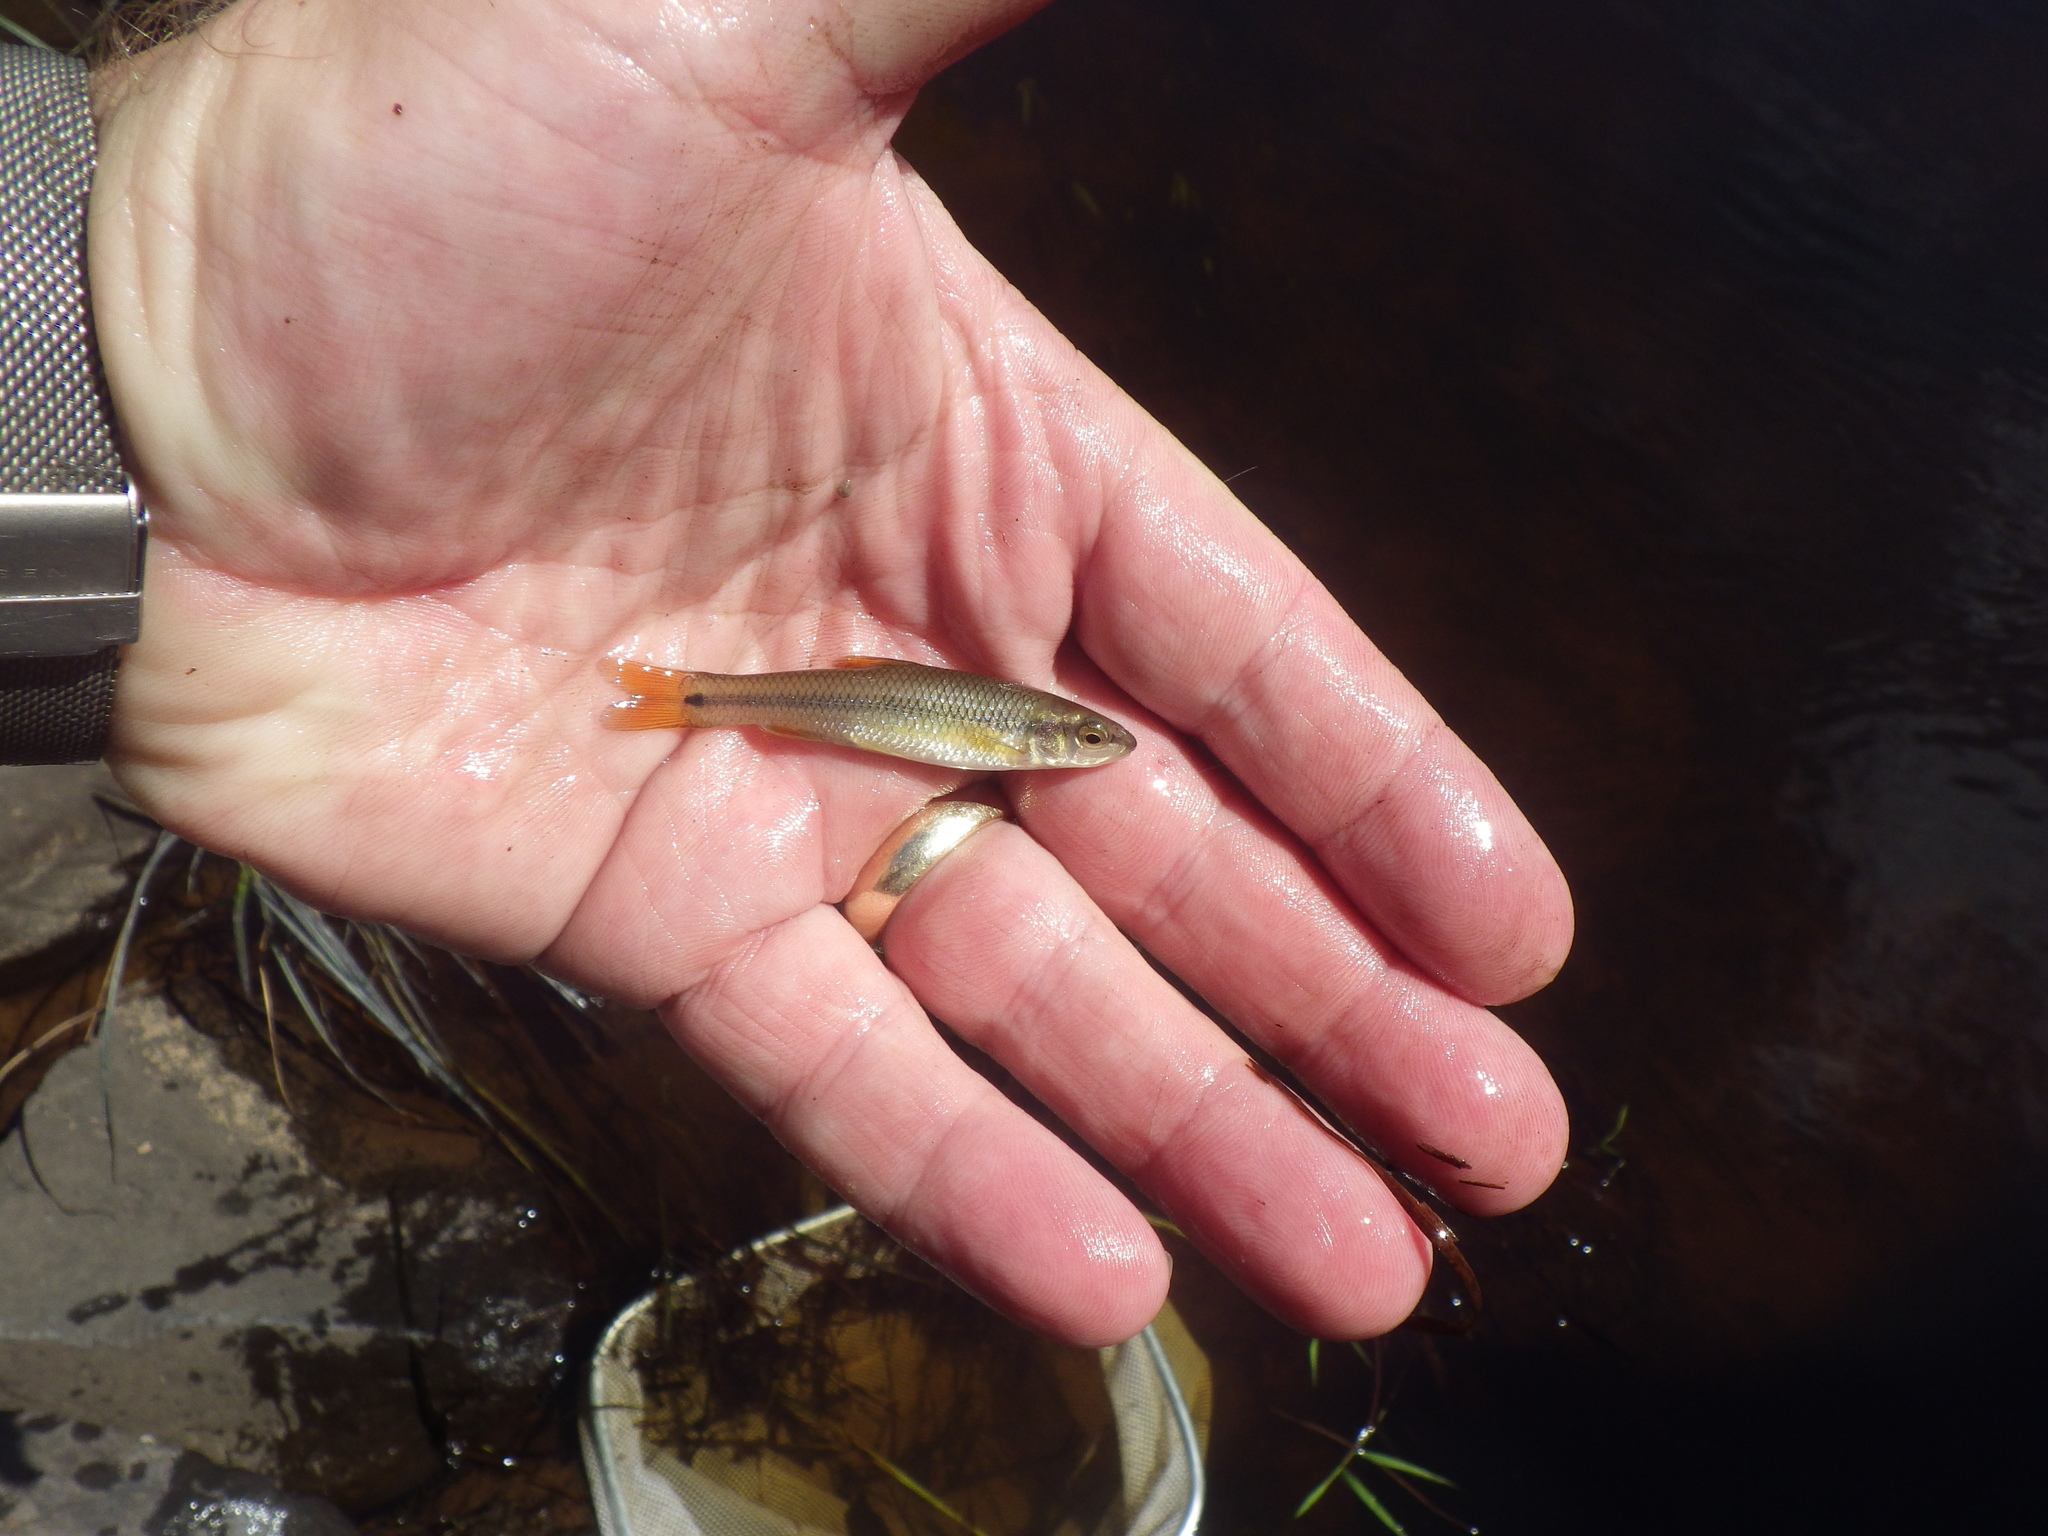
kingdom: Animalia
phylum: Chordata
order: Cypriniformes
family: Cyprinidae
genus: Nocomis
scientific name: Nocomis biguttatus
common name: Hornyhead chub
